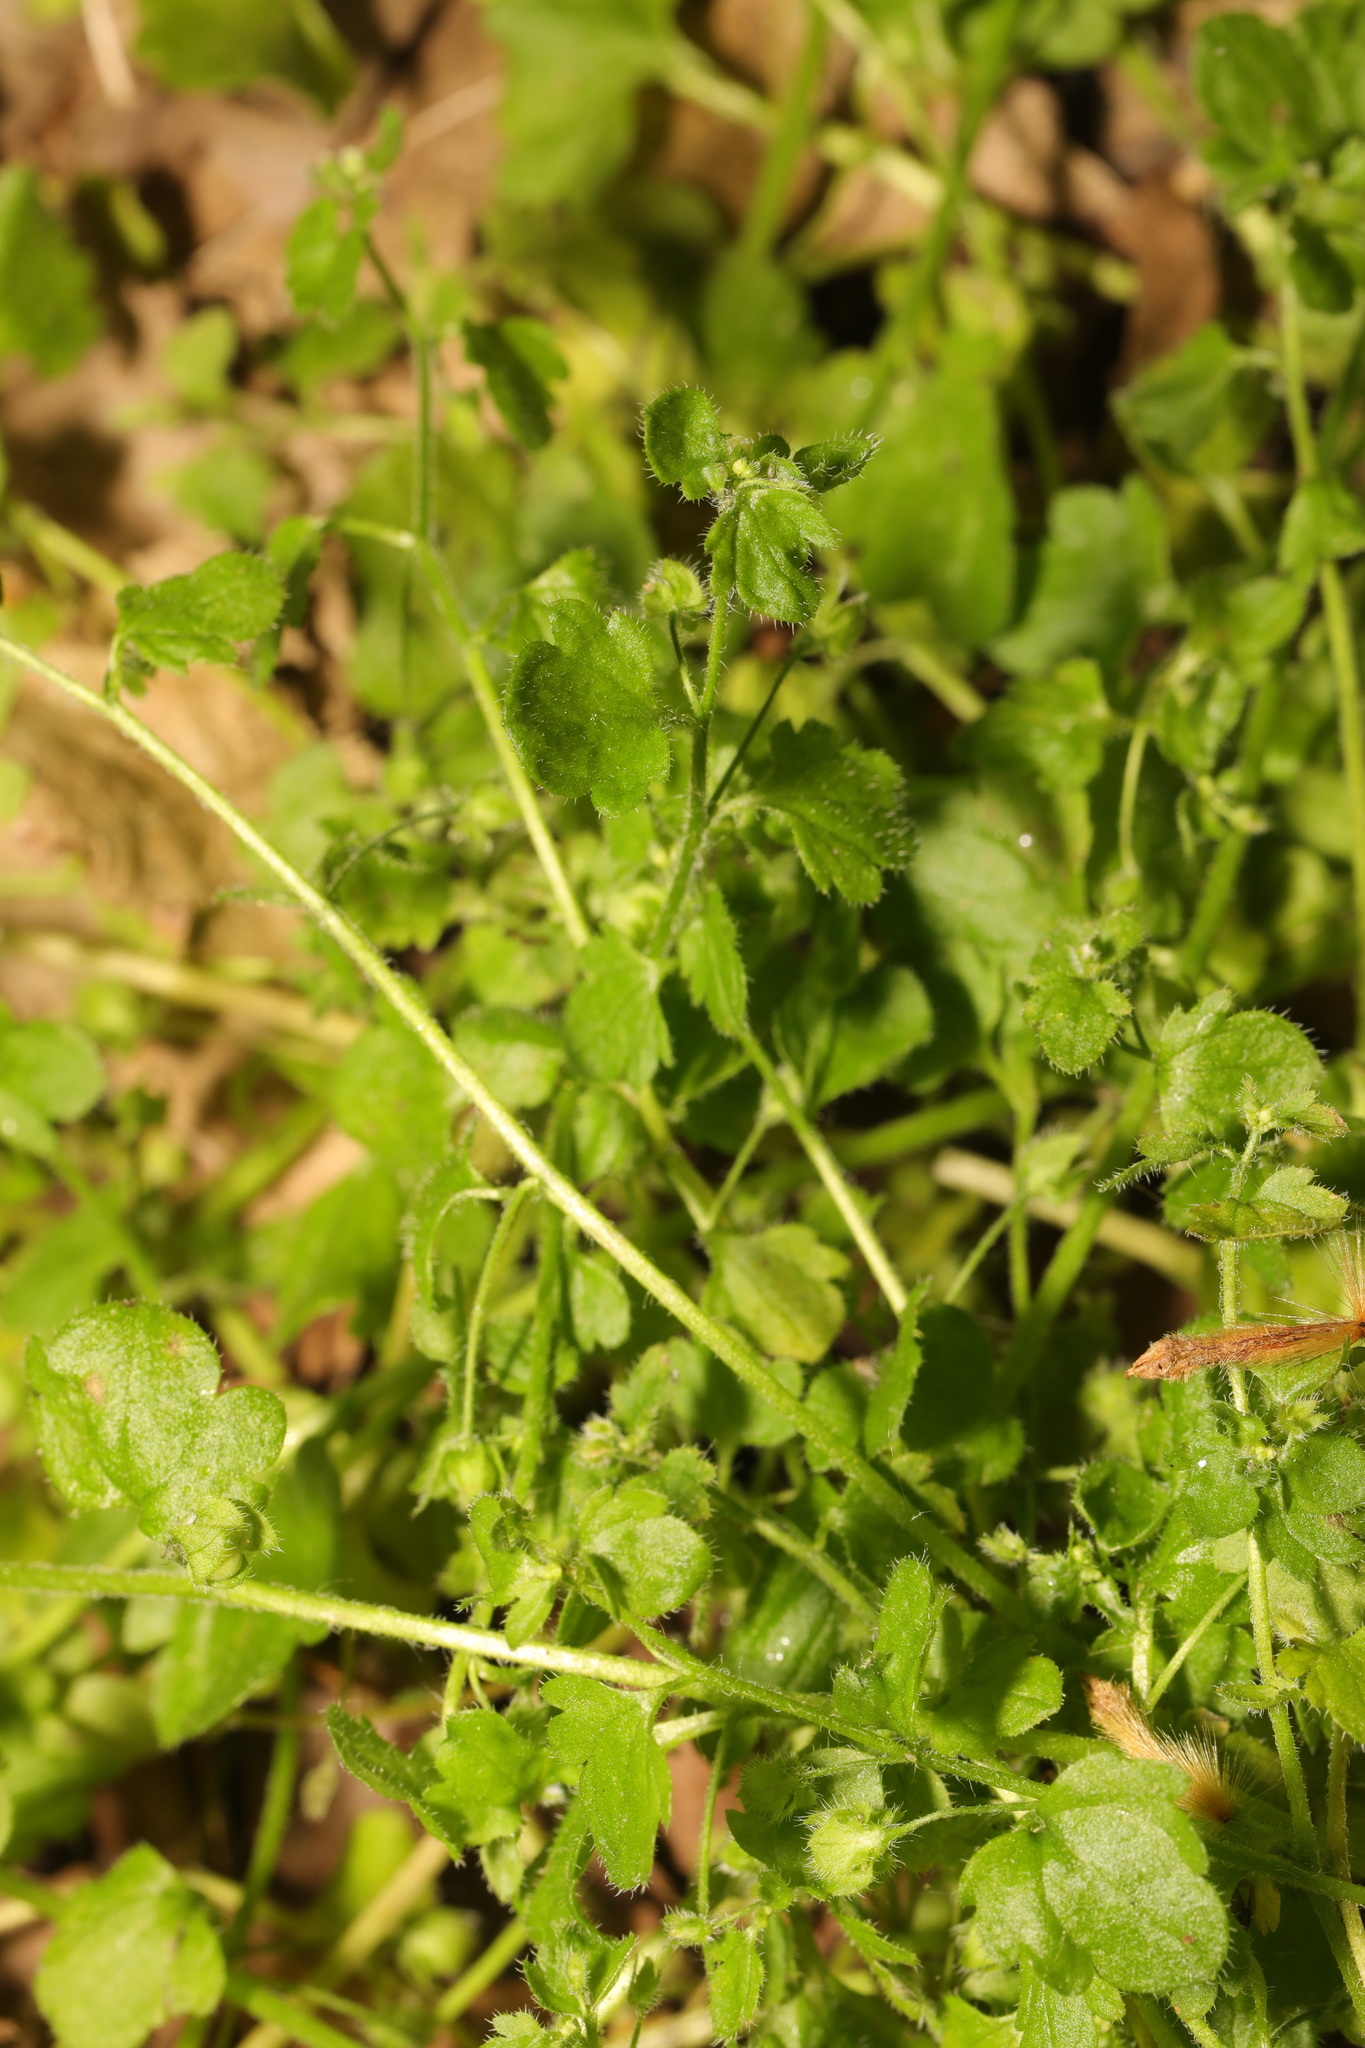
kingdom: Plantae
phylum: Tracheophyta
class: Magnoliopsida
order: Lamiales
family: Plantaginaceae
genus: Veronica
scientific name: Veronica sublobata
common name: False ivy-leaved speedwell
